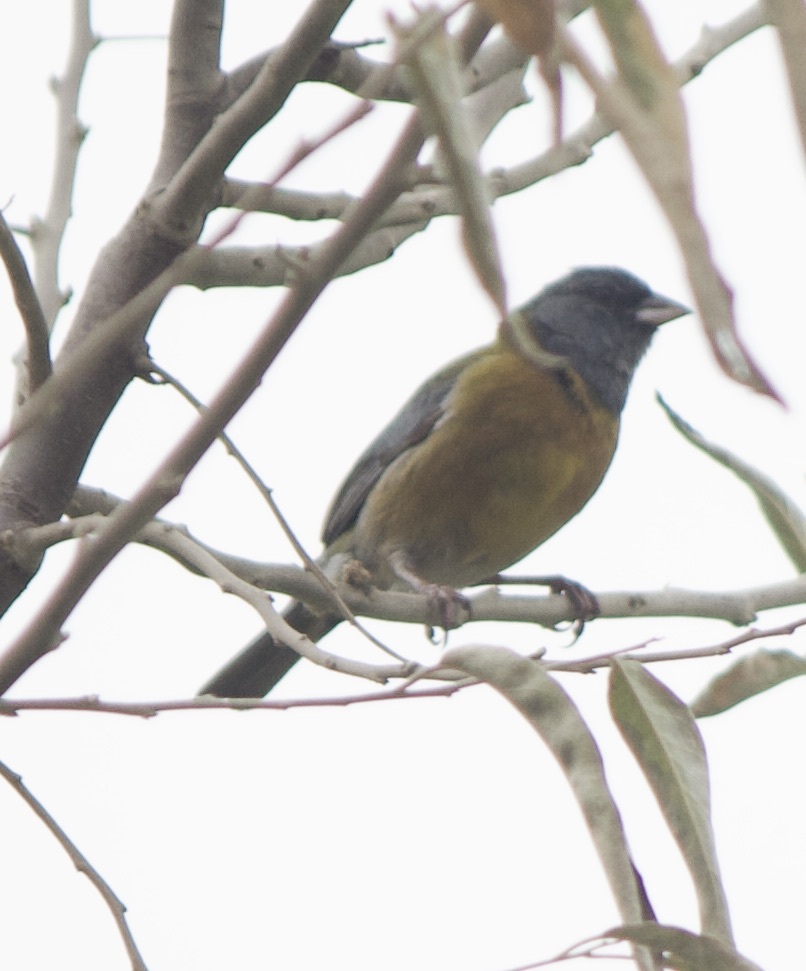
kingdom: Animalia
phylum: Chordata
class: Aves
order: Passeriformes
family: Thraupidae
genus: Phrygilus
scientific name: Phrygilus gayi
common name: Grey-hooded sierra finch
